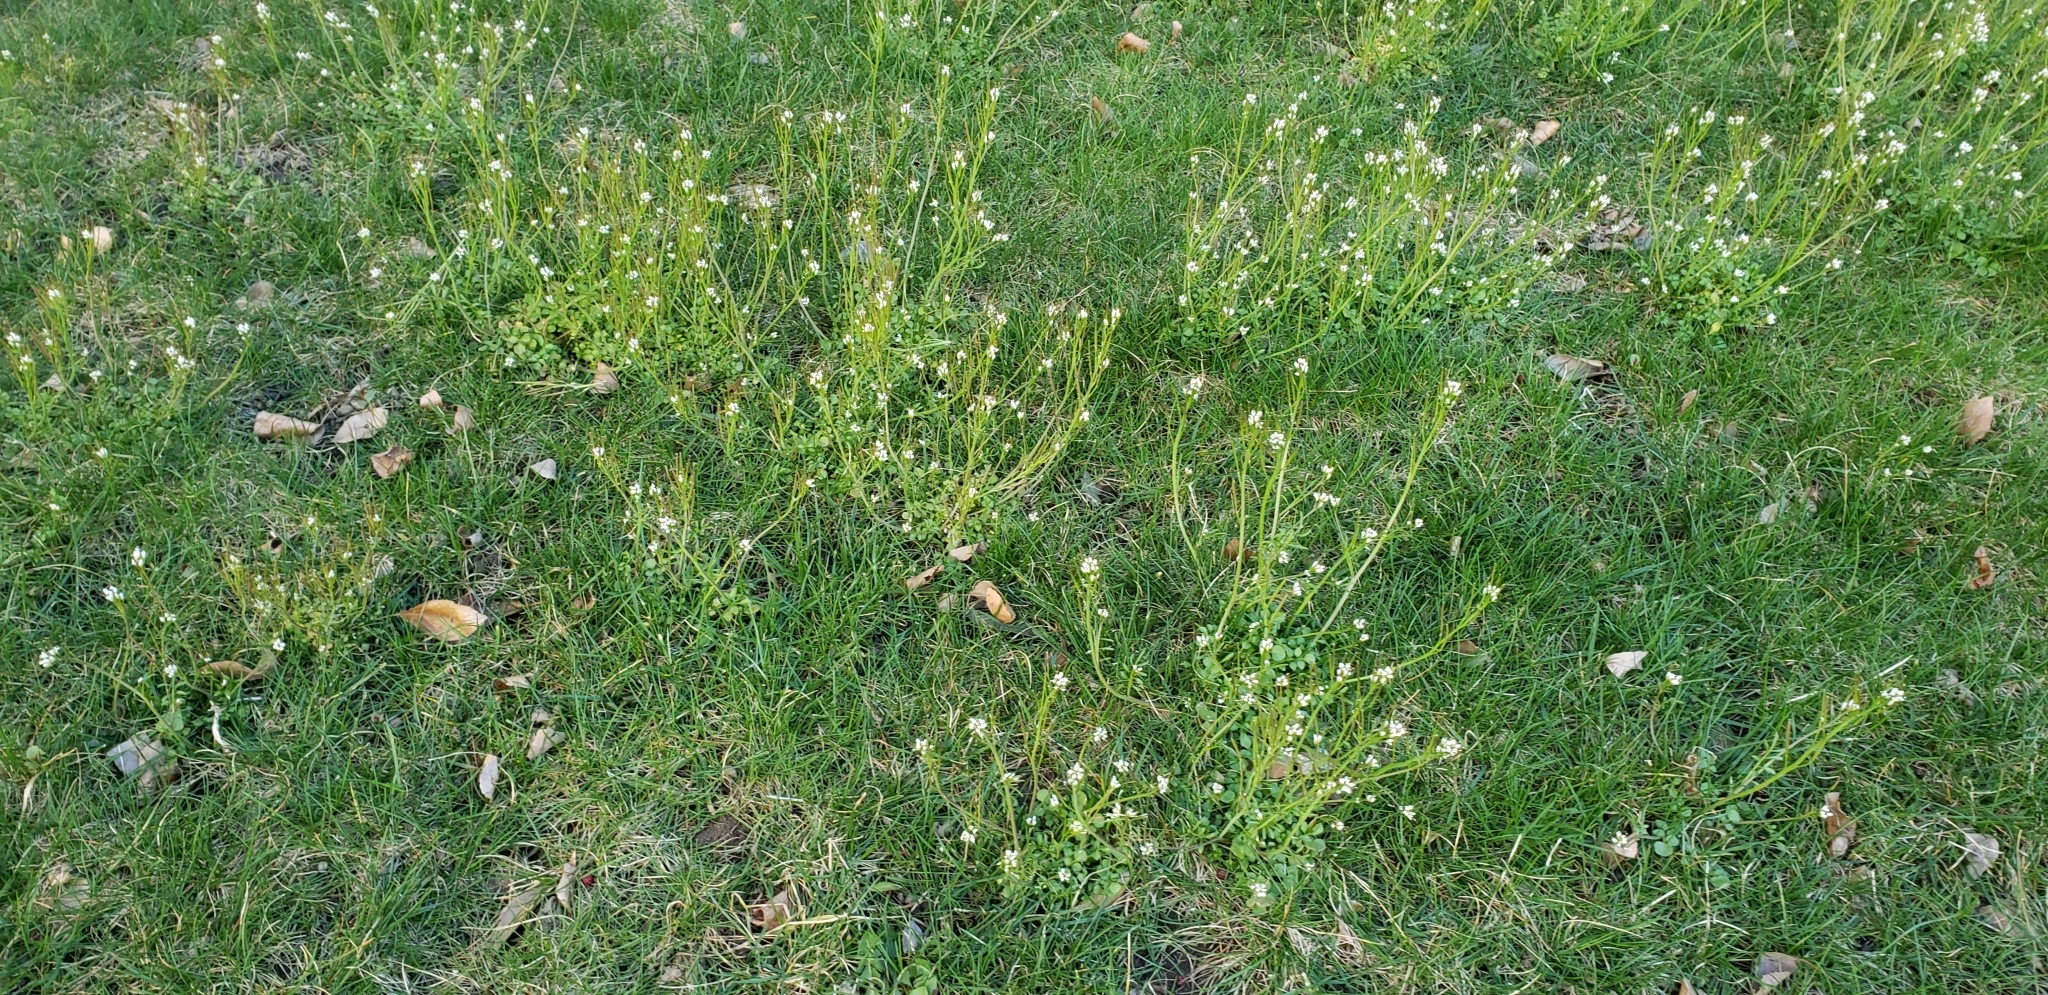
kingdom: Plantae
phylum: Tracheophyta
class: Magnoliopsida
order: Brassicales
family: Brassicaceae
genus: Cardamine
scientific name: Cardamine hirsuta
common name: Hairy bittercress
